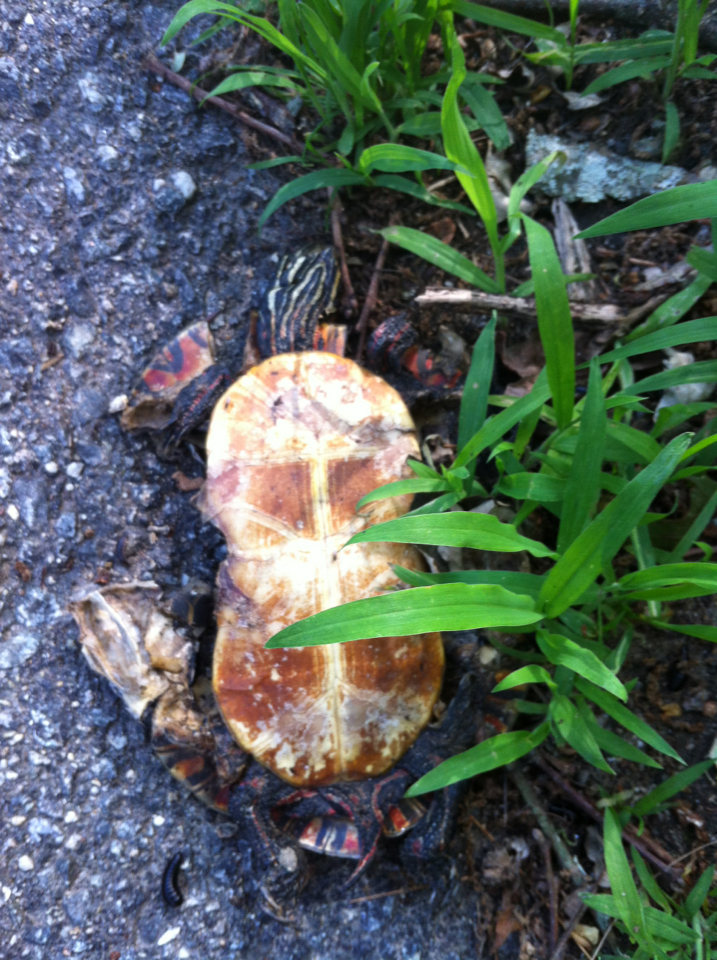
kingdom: Animalia
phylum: Chordata
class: Testudines
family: Emydidae
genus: Chrysemys
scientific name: Chrysemys picta
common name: Painted turtle
